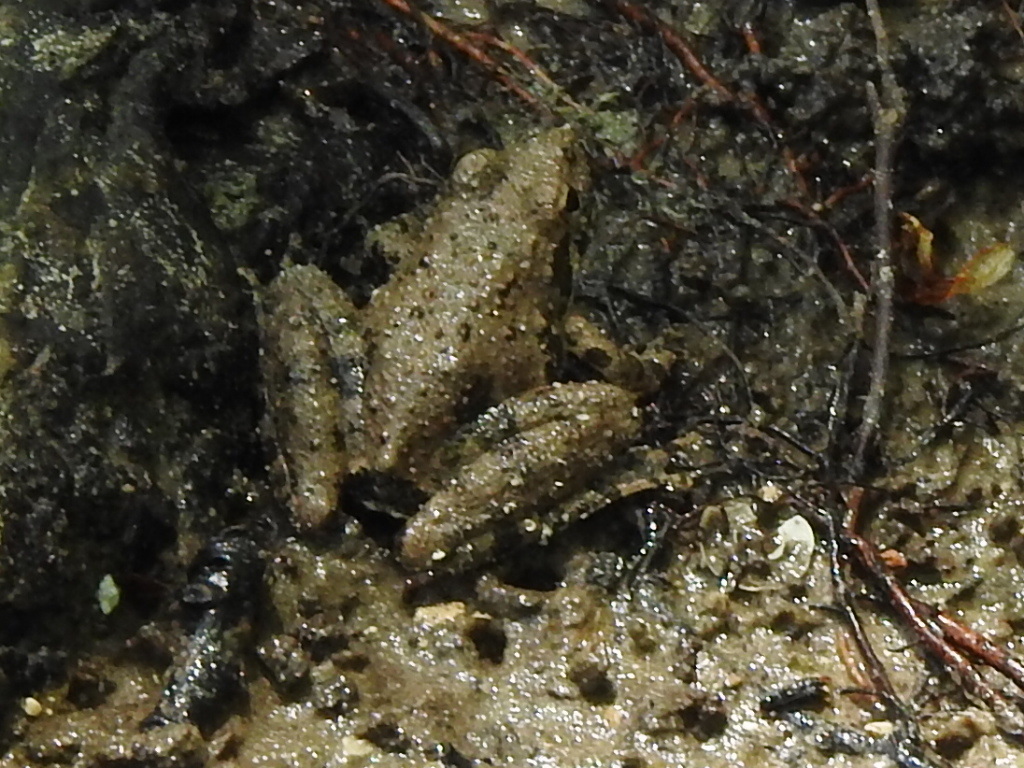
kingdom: Animalia
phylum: Chordata
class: Amphibia
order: Anura
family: Hylidae
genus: Acris
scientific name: Acris blanchardi
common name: Blanchard's cricket frog
